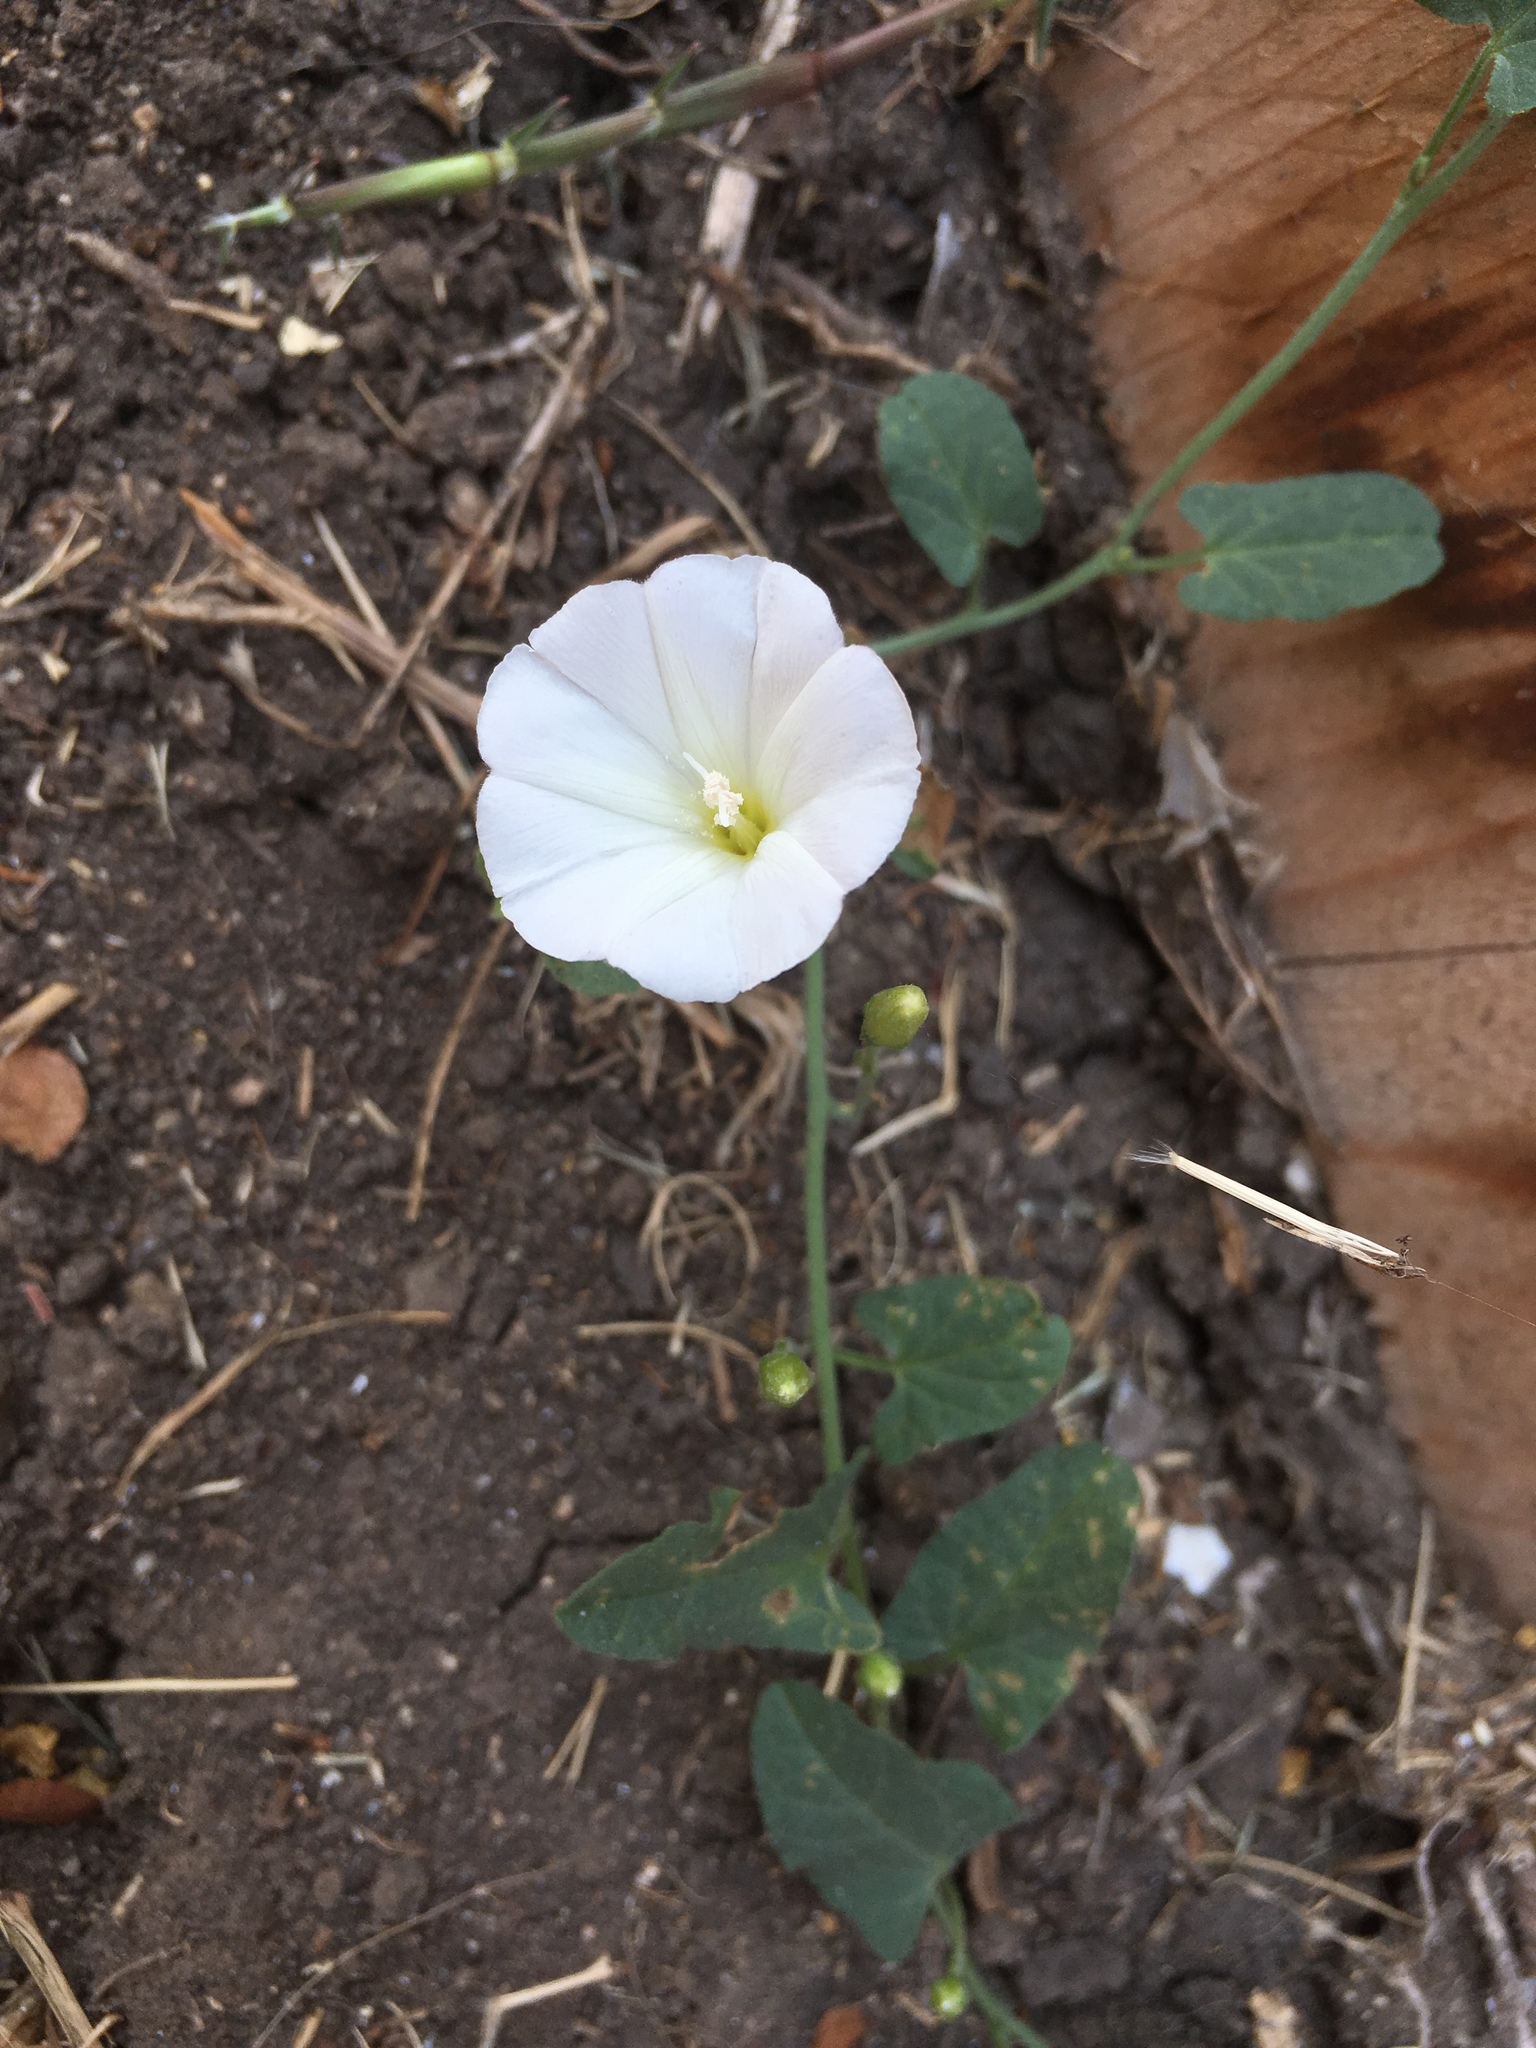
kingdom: Plantae
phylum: Tracheophyta
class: Magnoliopsida
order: Solanales
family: Convolvulaceae
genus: Convolvulus
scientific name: Convolvulus arvensis
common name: Field bindweed
